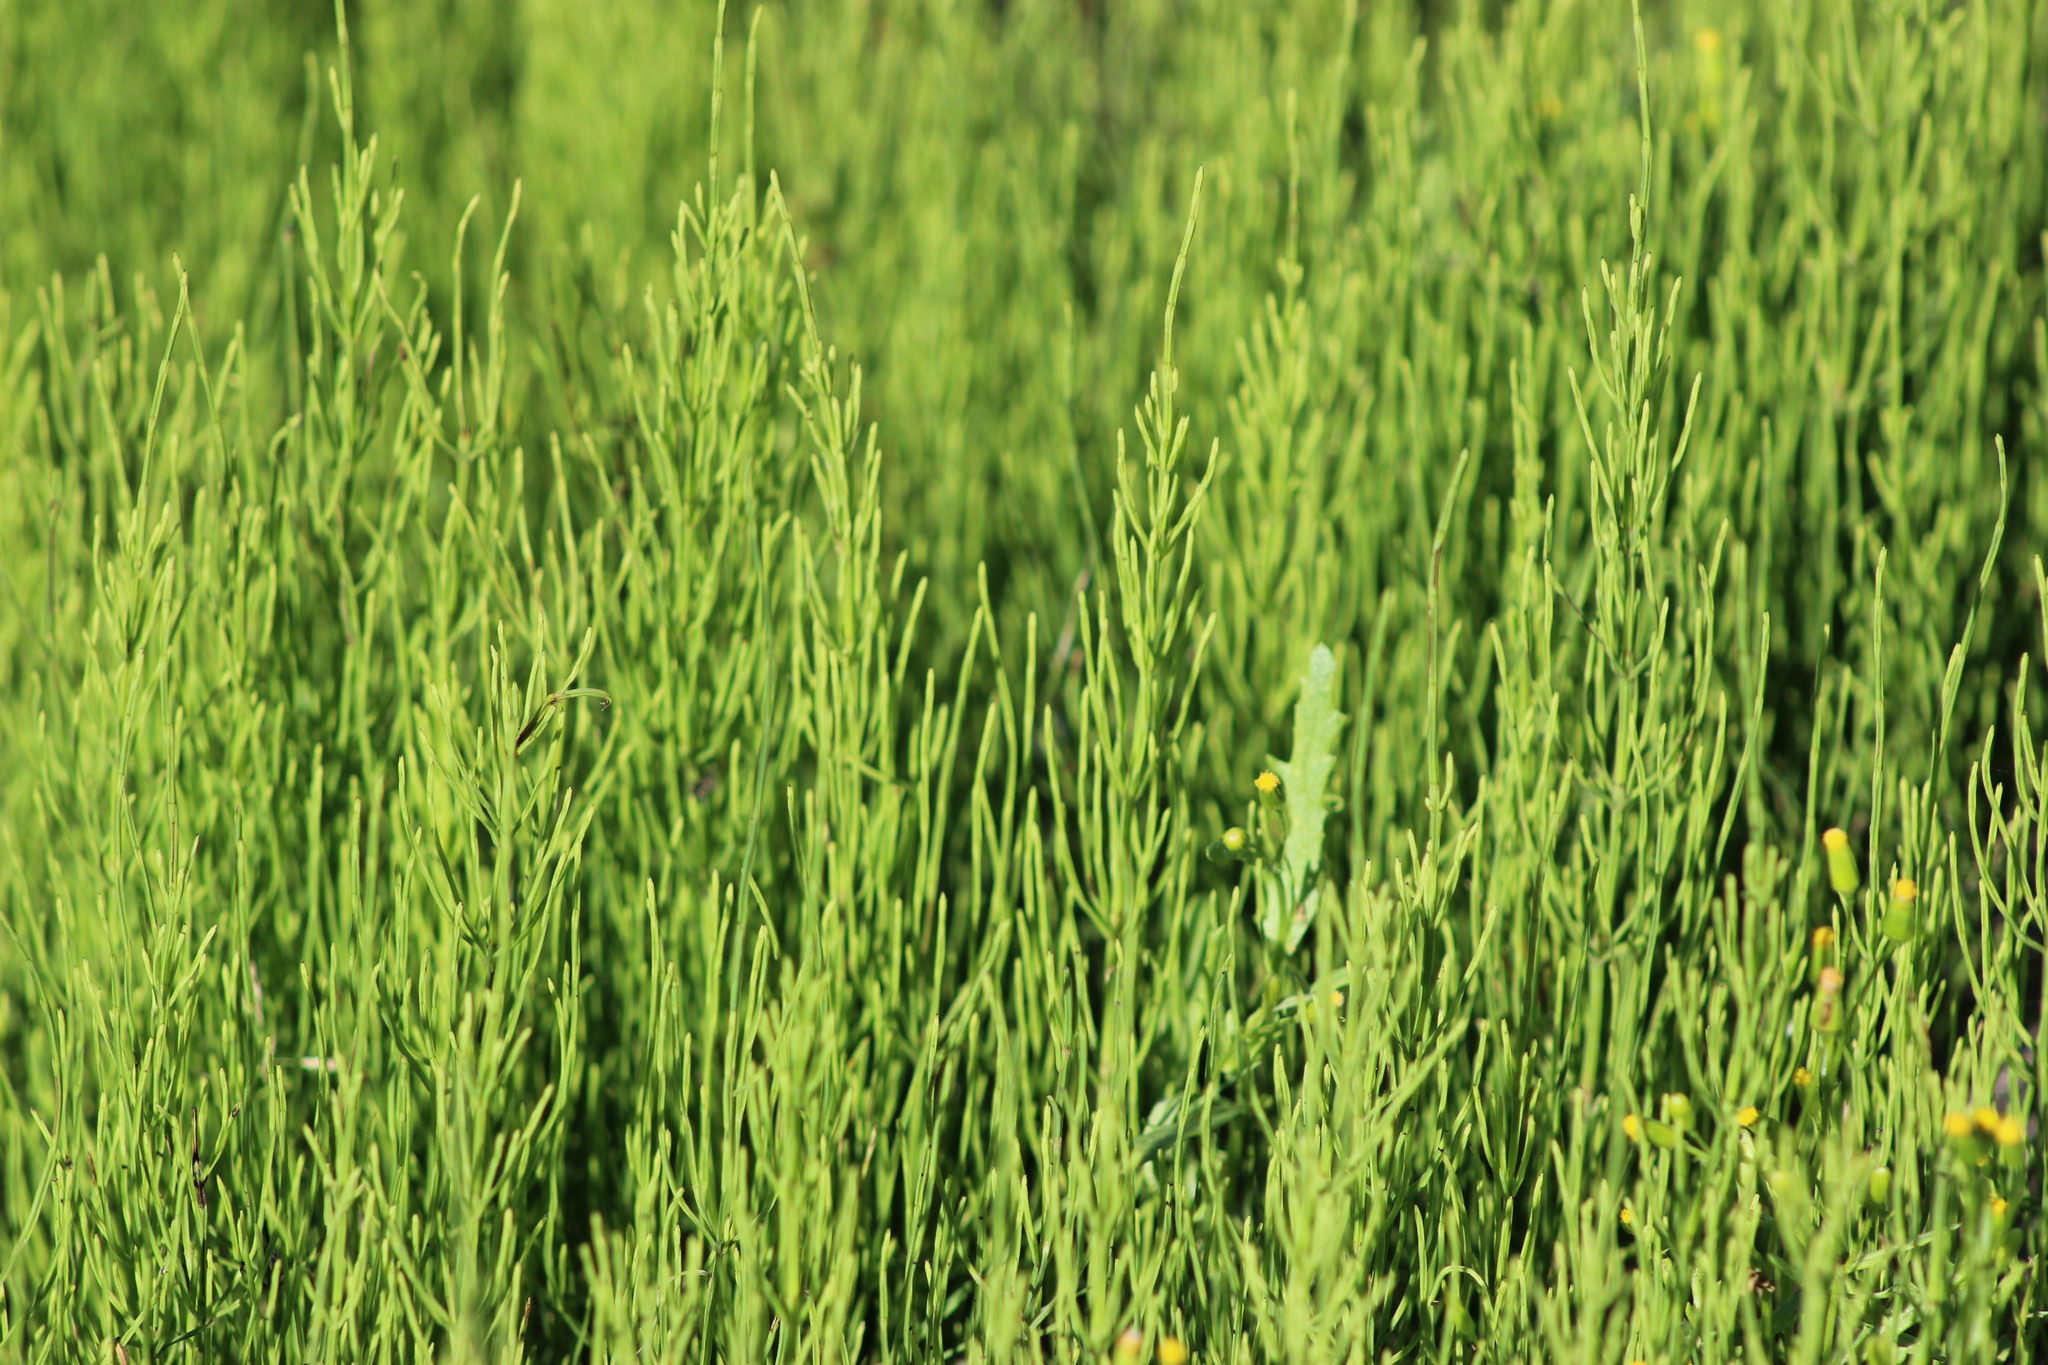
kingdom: Plantae
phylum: Tracheophyta
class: Polypodiopsida
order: Equisetales
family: Equisetaceae
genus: Equisetum
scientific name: Equisetum arvense
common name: Field horsetail
